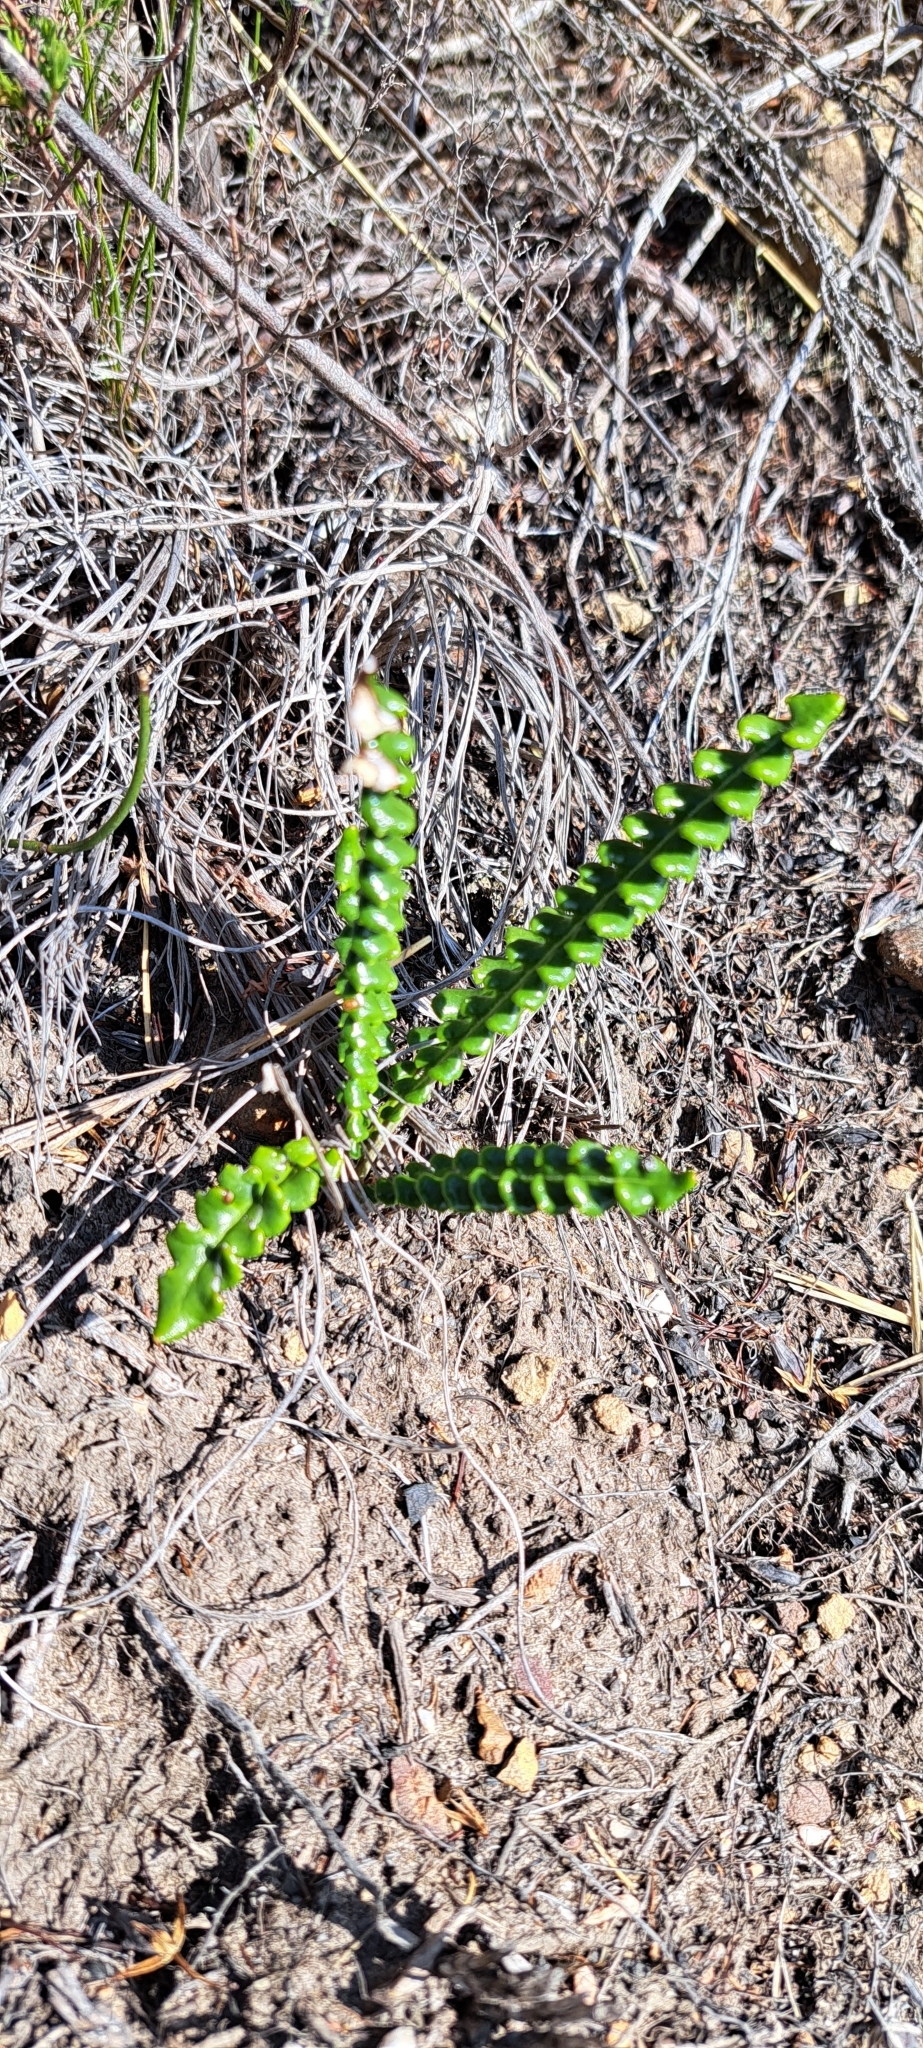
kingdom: Plantae
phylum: Tracheophyta
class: Magnoliopsida
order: Asterales
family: Asteraceae
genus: Gerbera
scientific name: Gerbera linnaei
